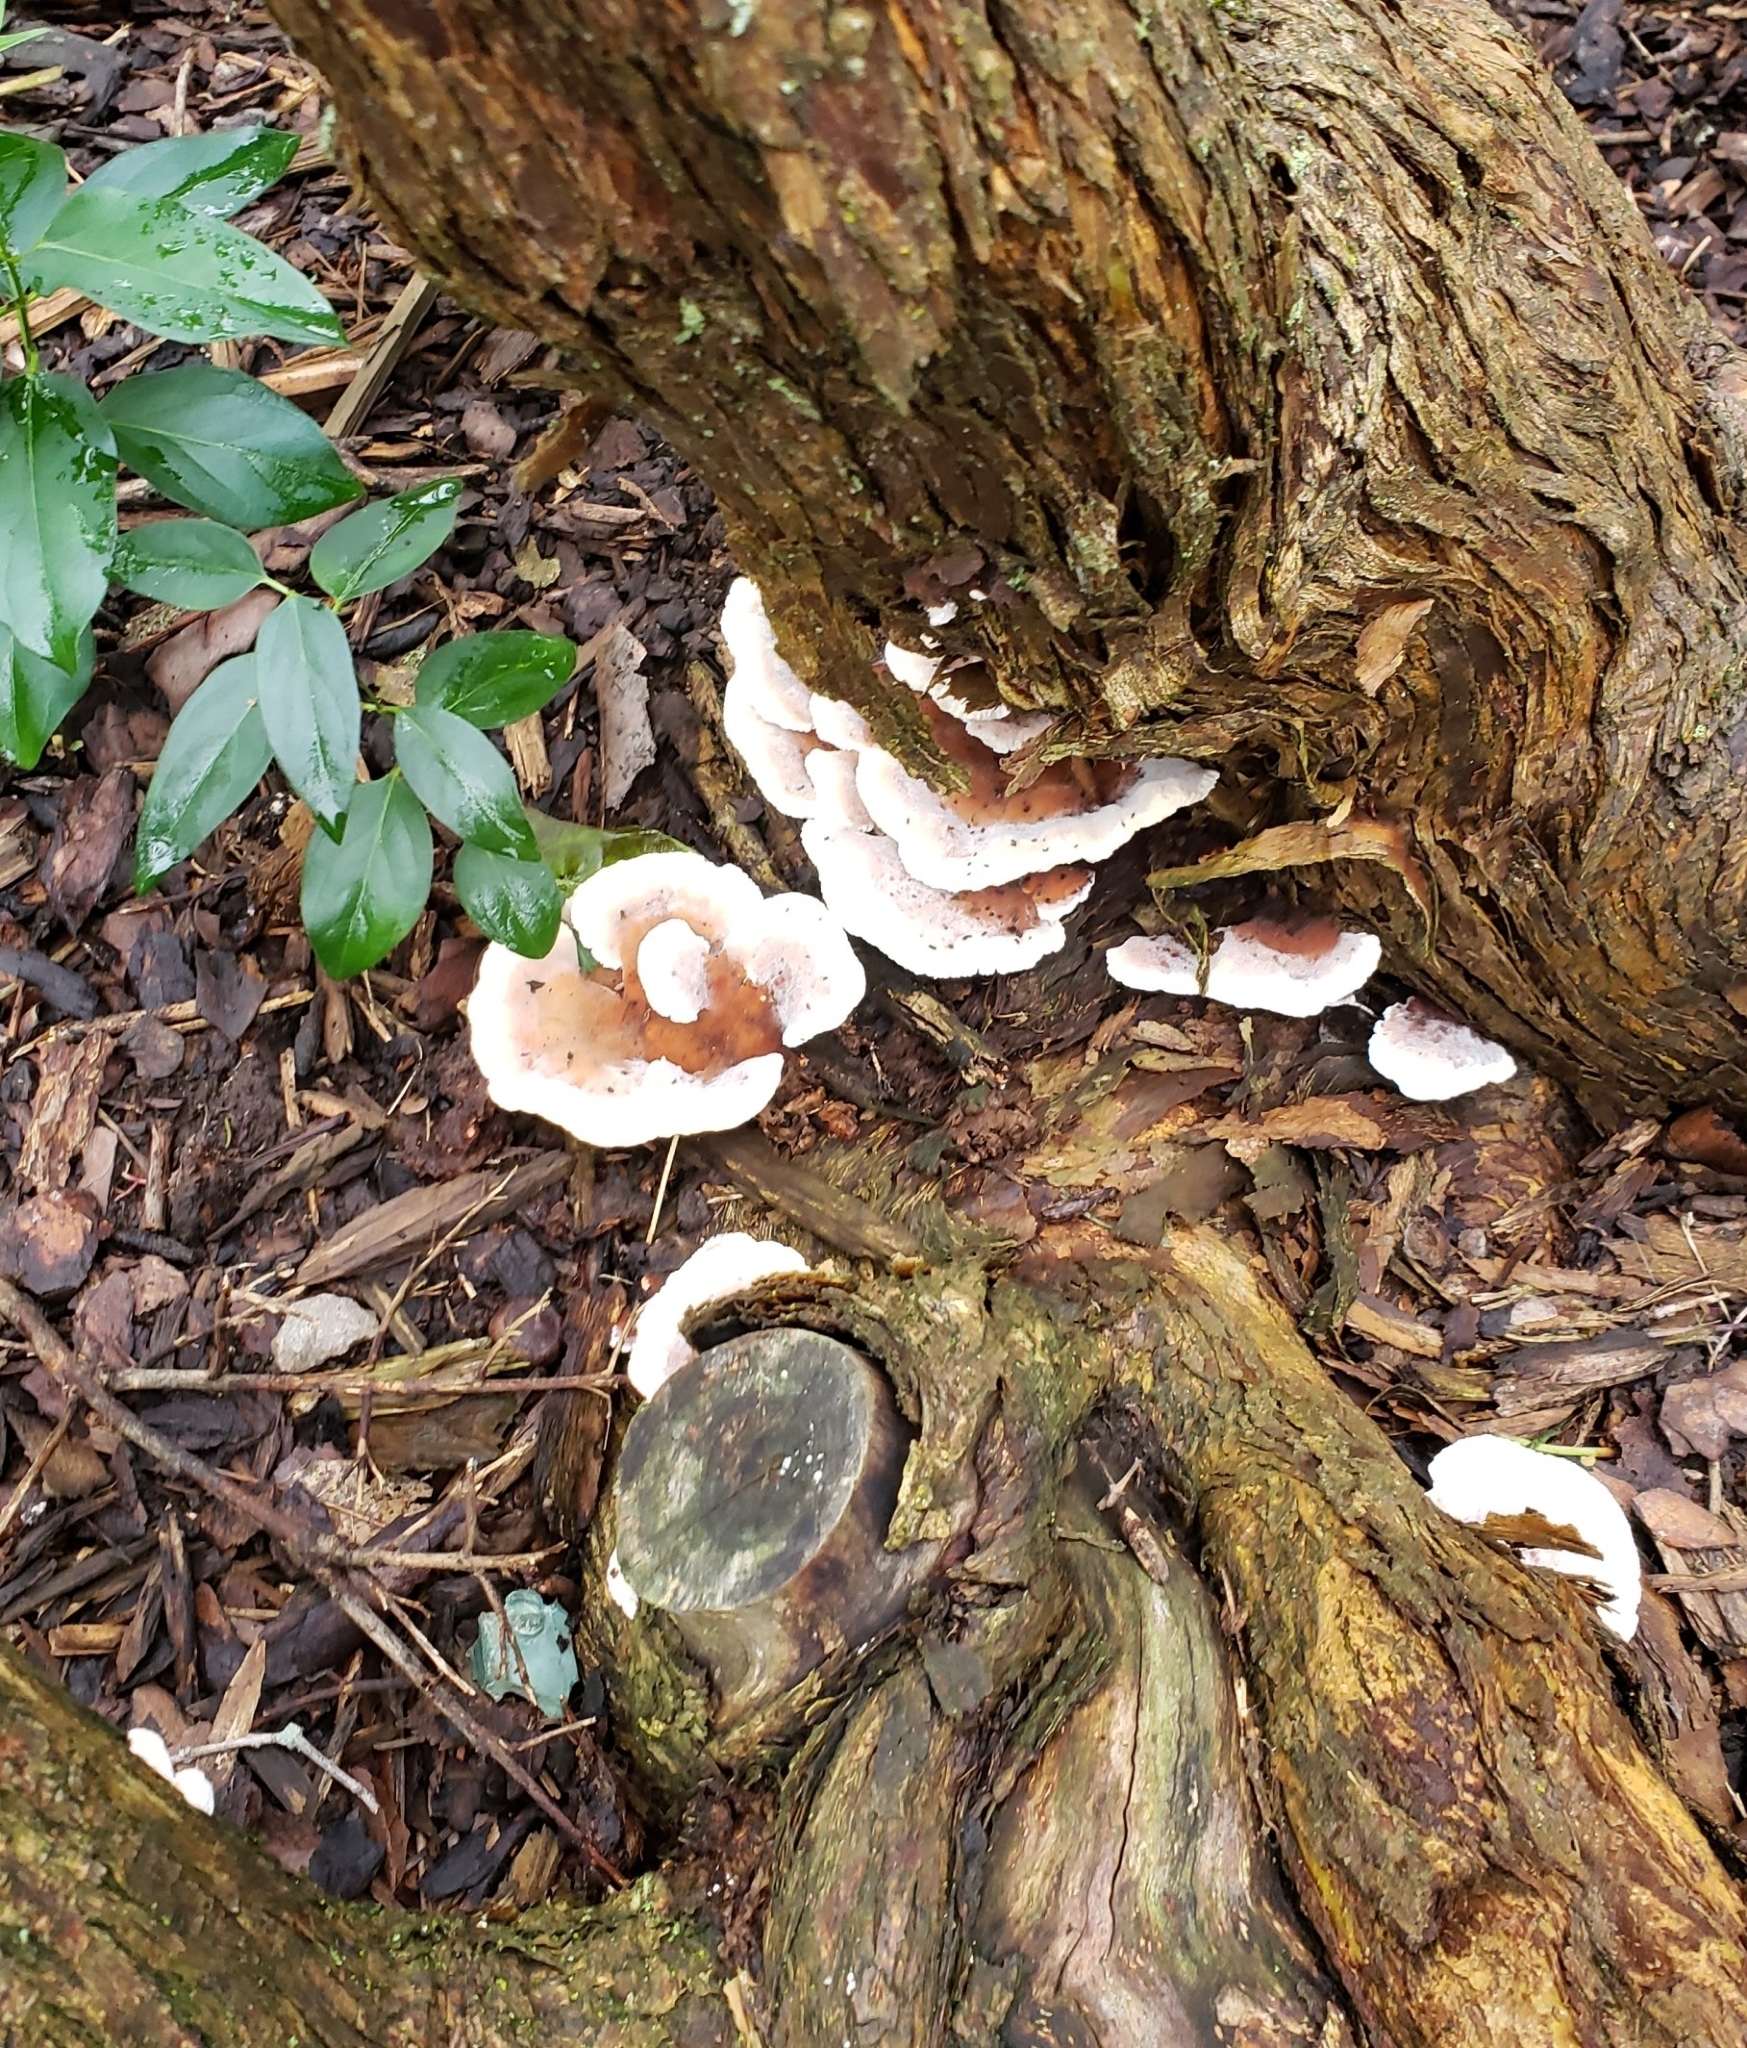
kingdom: Fungi
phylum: Basidiomycota
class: Agaricomycetes
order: Polyporales
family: Podoscyphaceae
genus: Abortiporus
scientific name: Abortiporus biennis
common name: Blushing rosette
